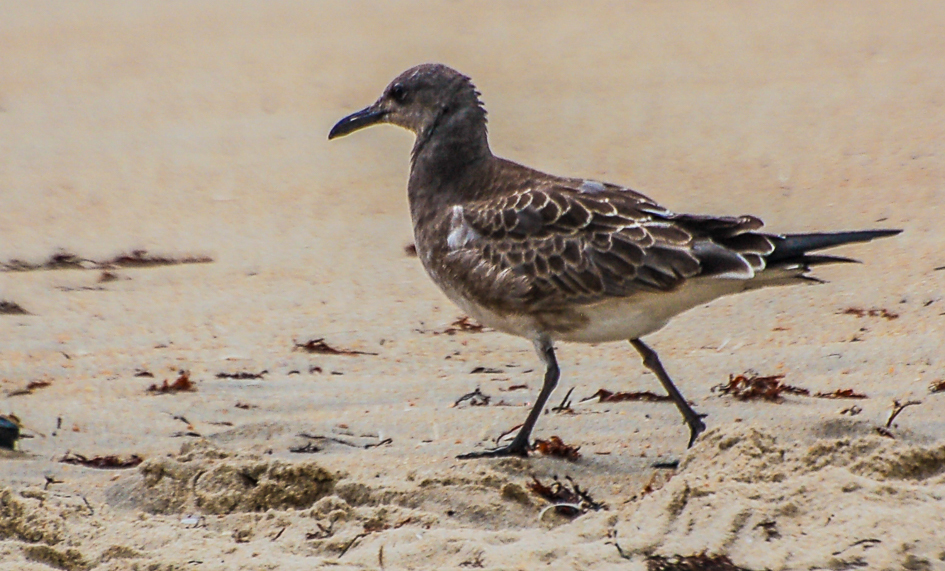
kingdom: Animalia
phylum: Chordata
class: Aves
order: Charadriiformes
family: Laridae
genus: Leucophaeus
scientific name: Leucophaeus atricilla
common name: Laughing gull
